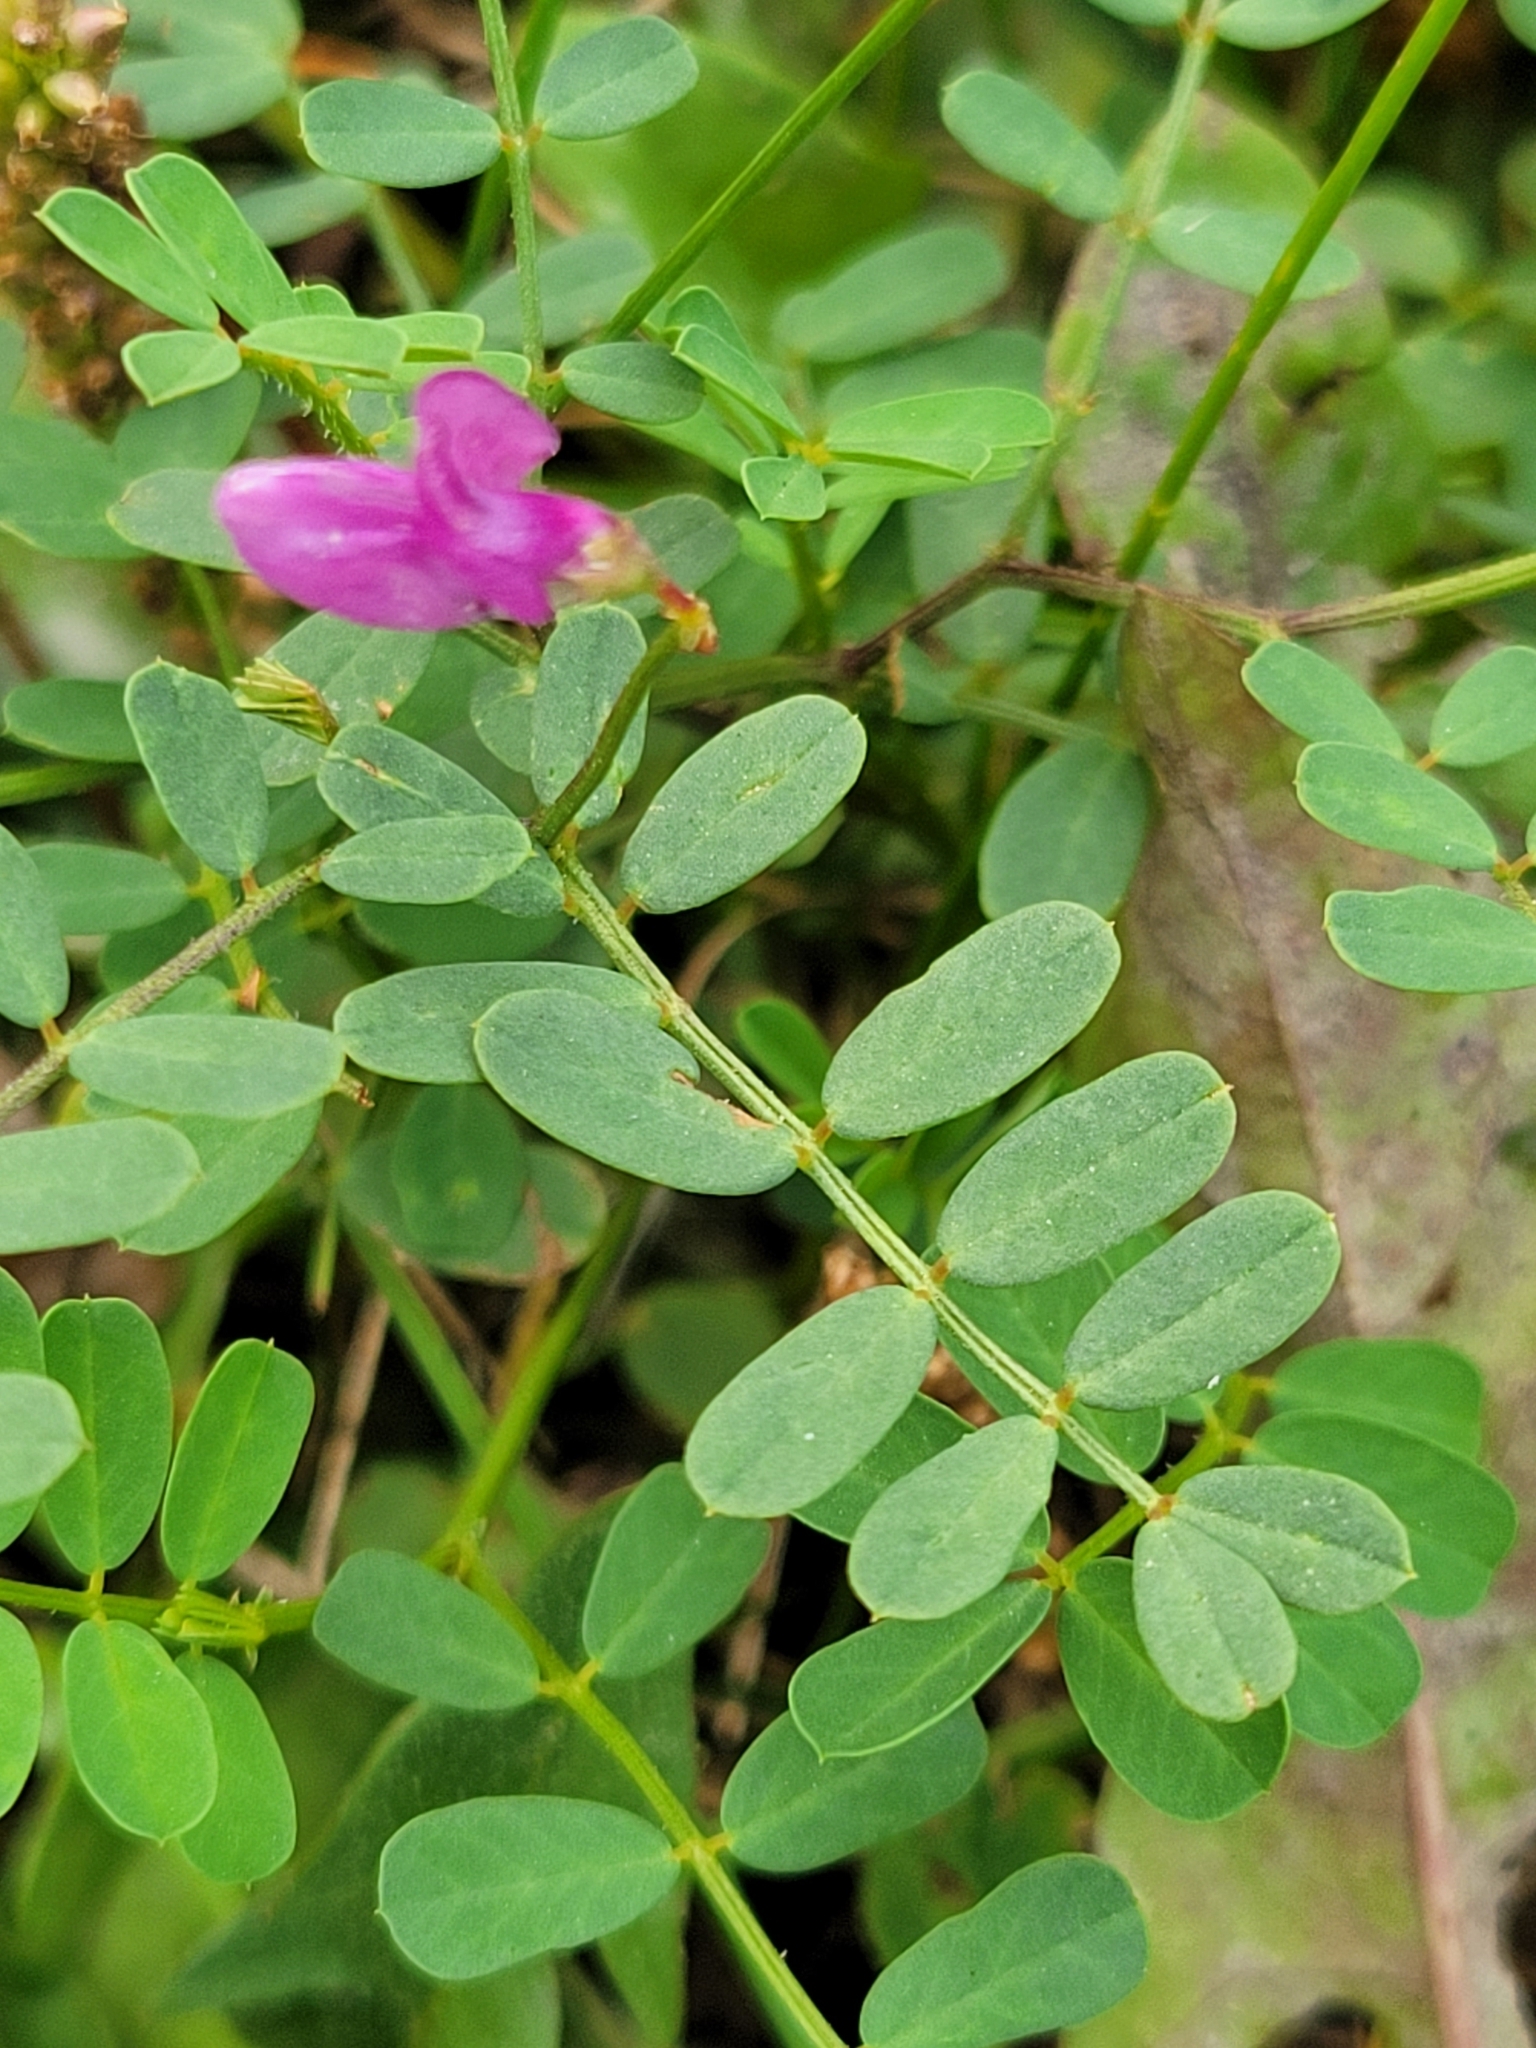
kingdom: Plantae
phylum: Tracheophyta
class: Magnoliopsida
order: Fabales
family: Fabaceae
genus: Coronilla
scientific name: Coronilla varia
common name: Crownvetch
